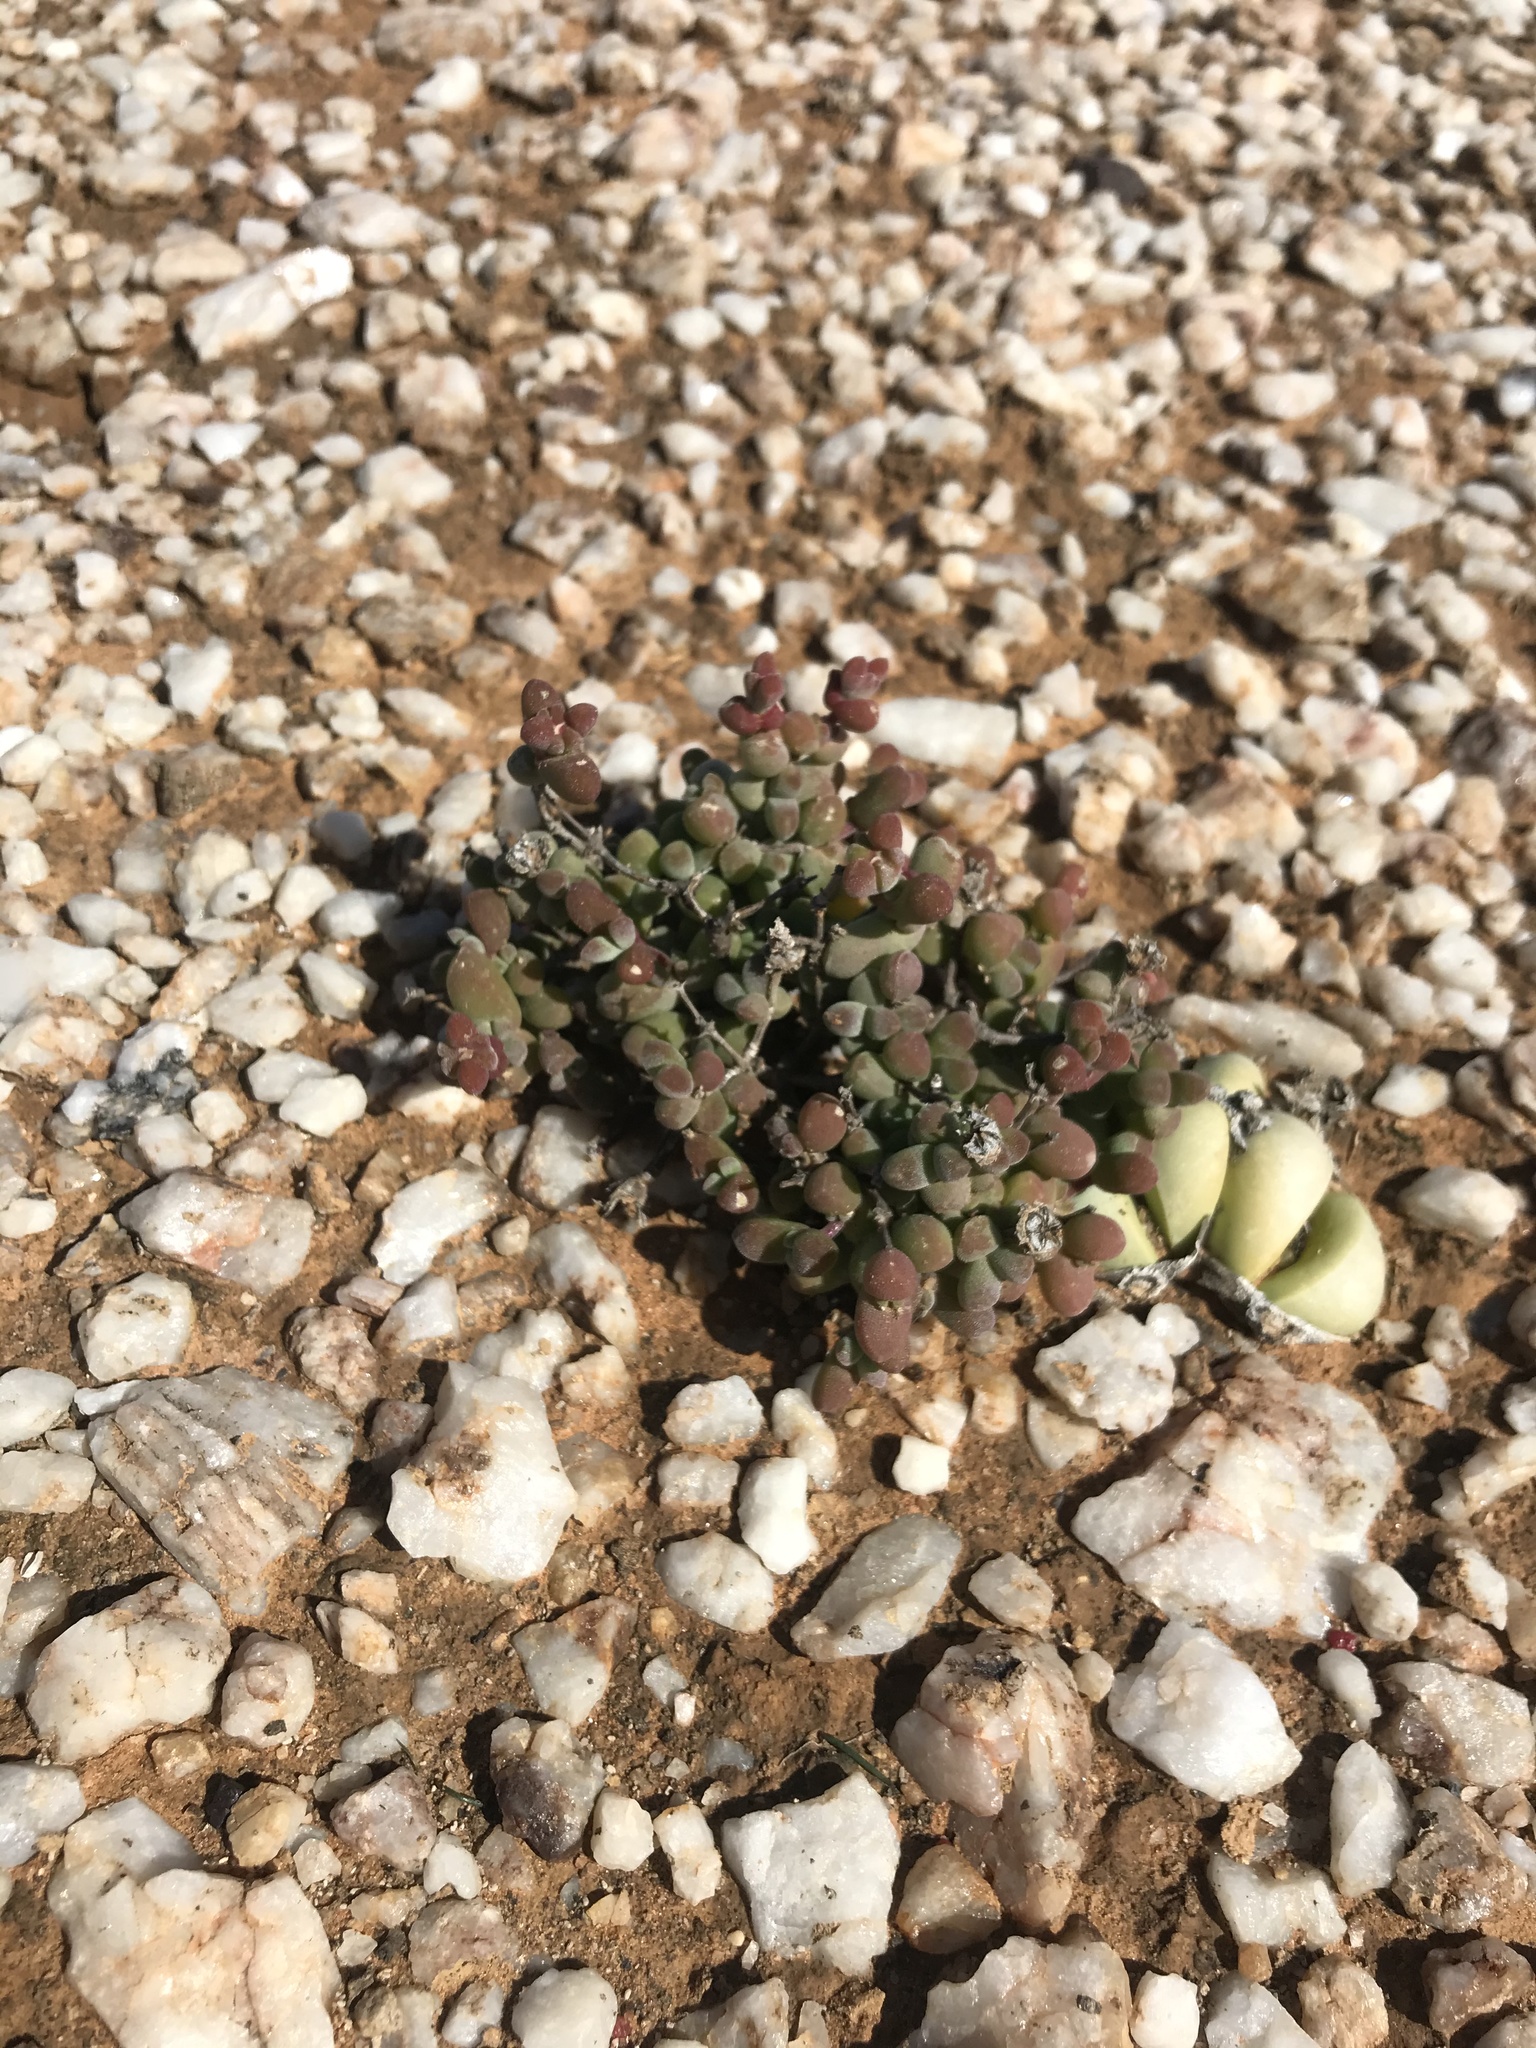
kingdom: Plantae
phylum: Tracheophyta
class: Magnoliopsida
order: Caryophyllales
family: Aizoaceae
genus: Drosanthemopsis
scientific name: Drosanthemopsis diversifolia
